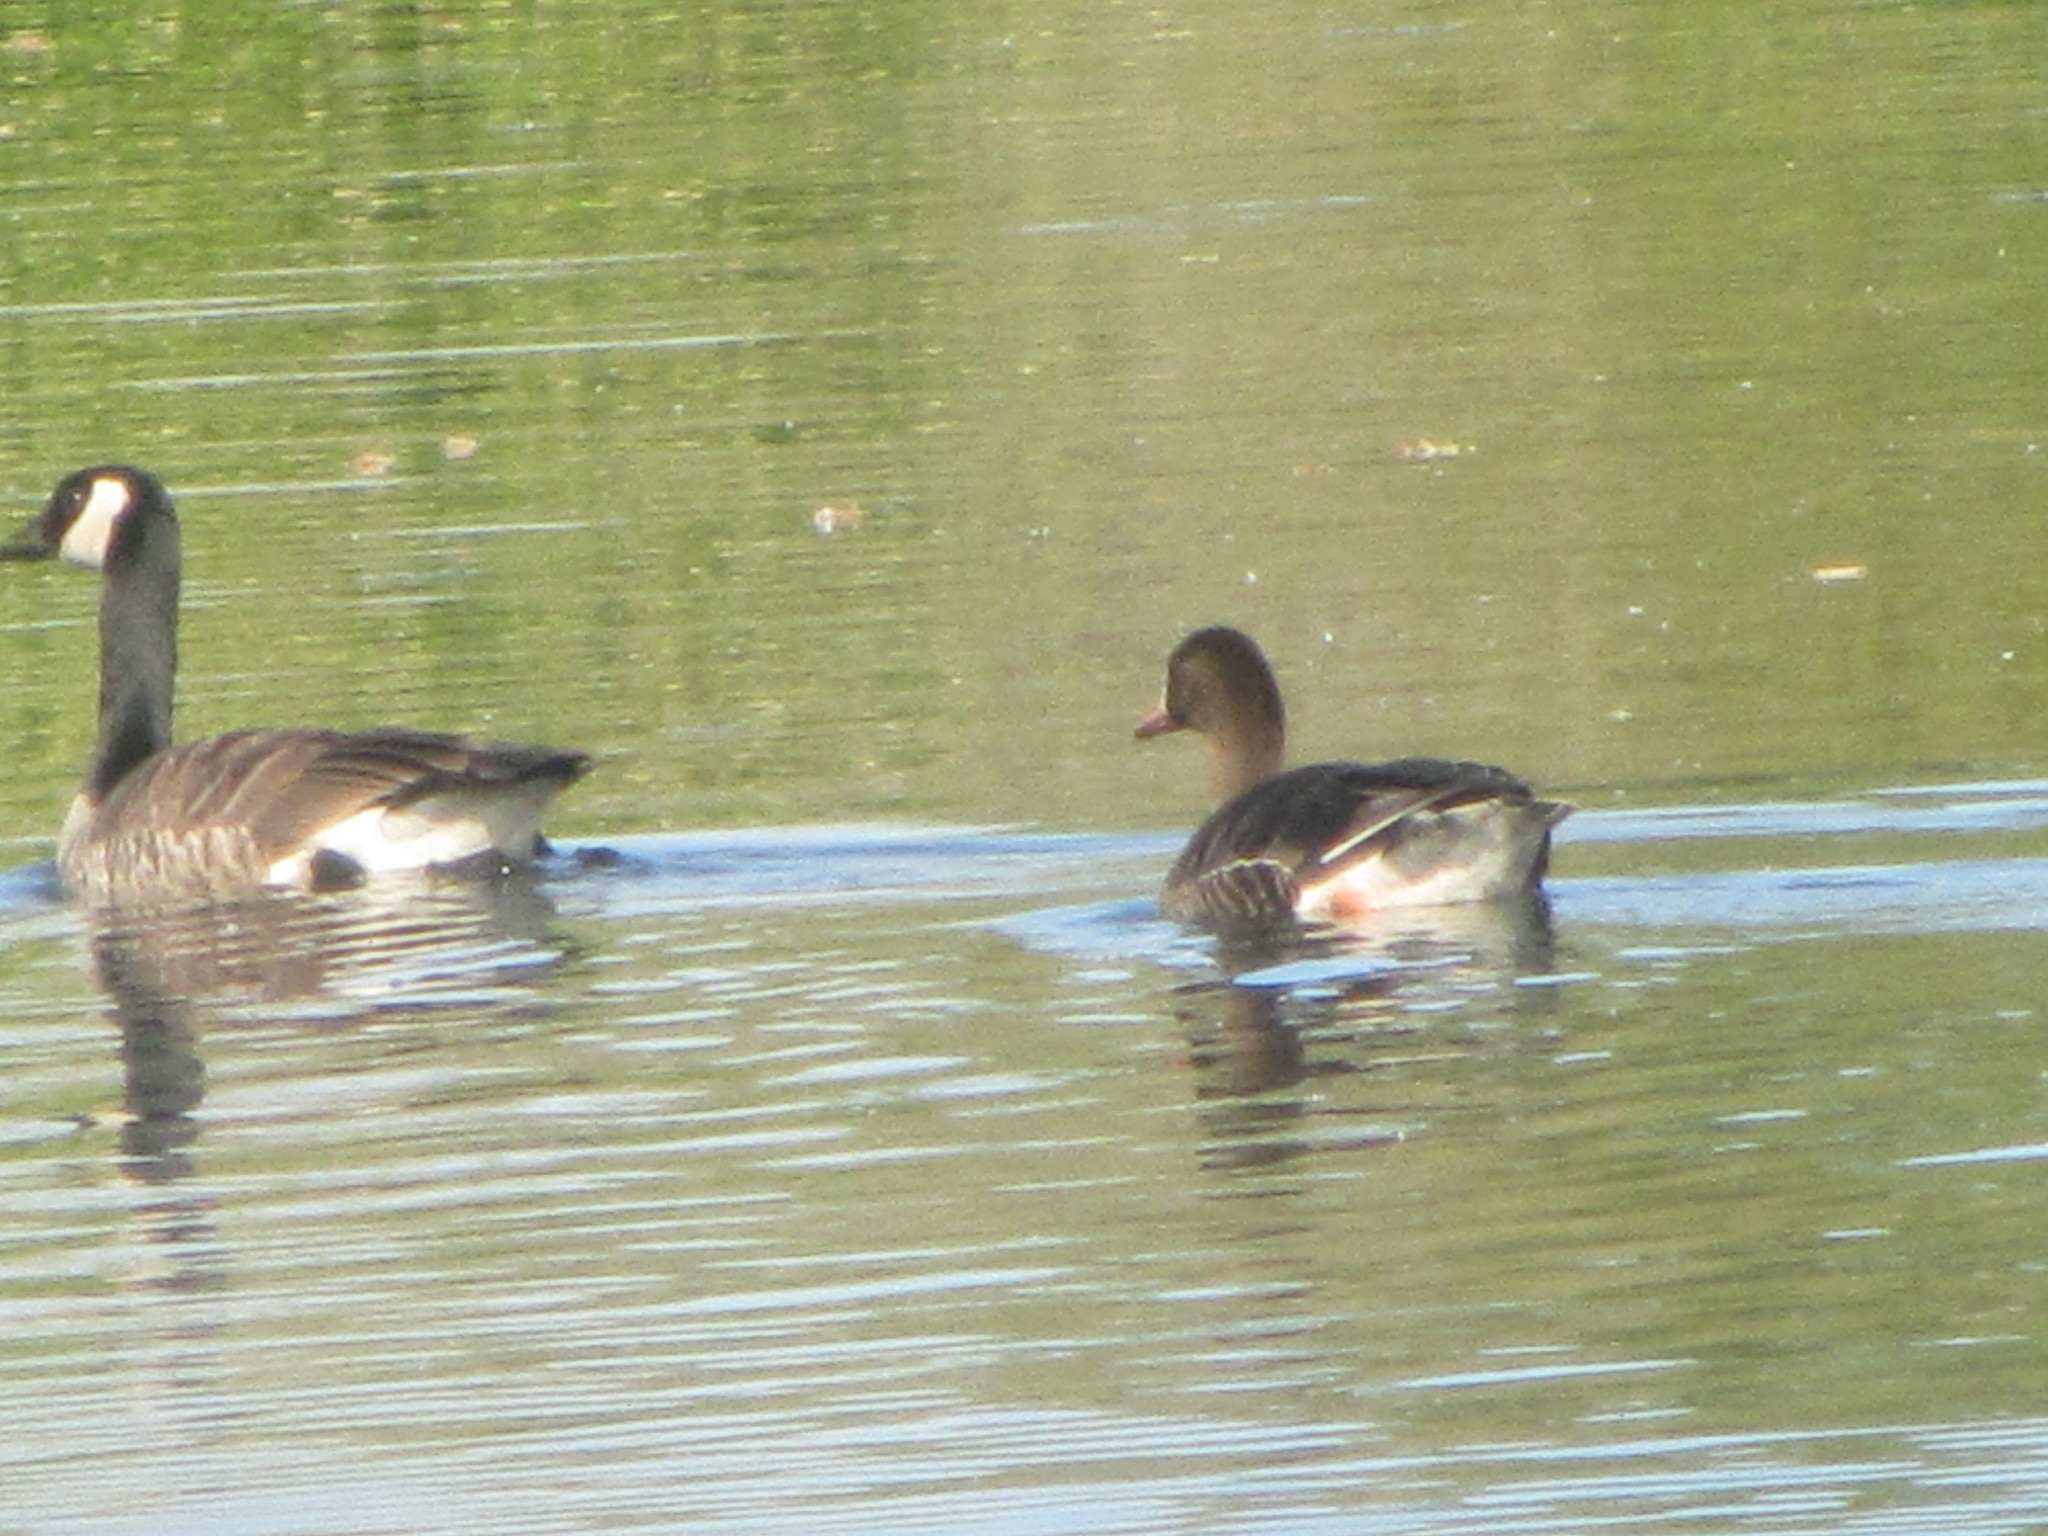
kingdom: Animalia
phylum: Chordata
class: Aves
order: Anseriformes
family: Anatidae
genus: Branta
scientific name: Branta canadensis
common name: Canada goose
